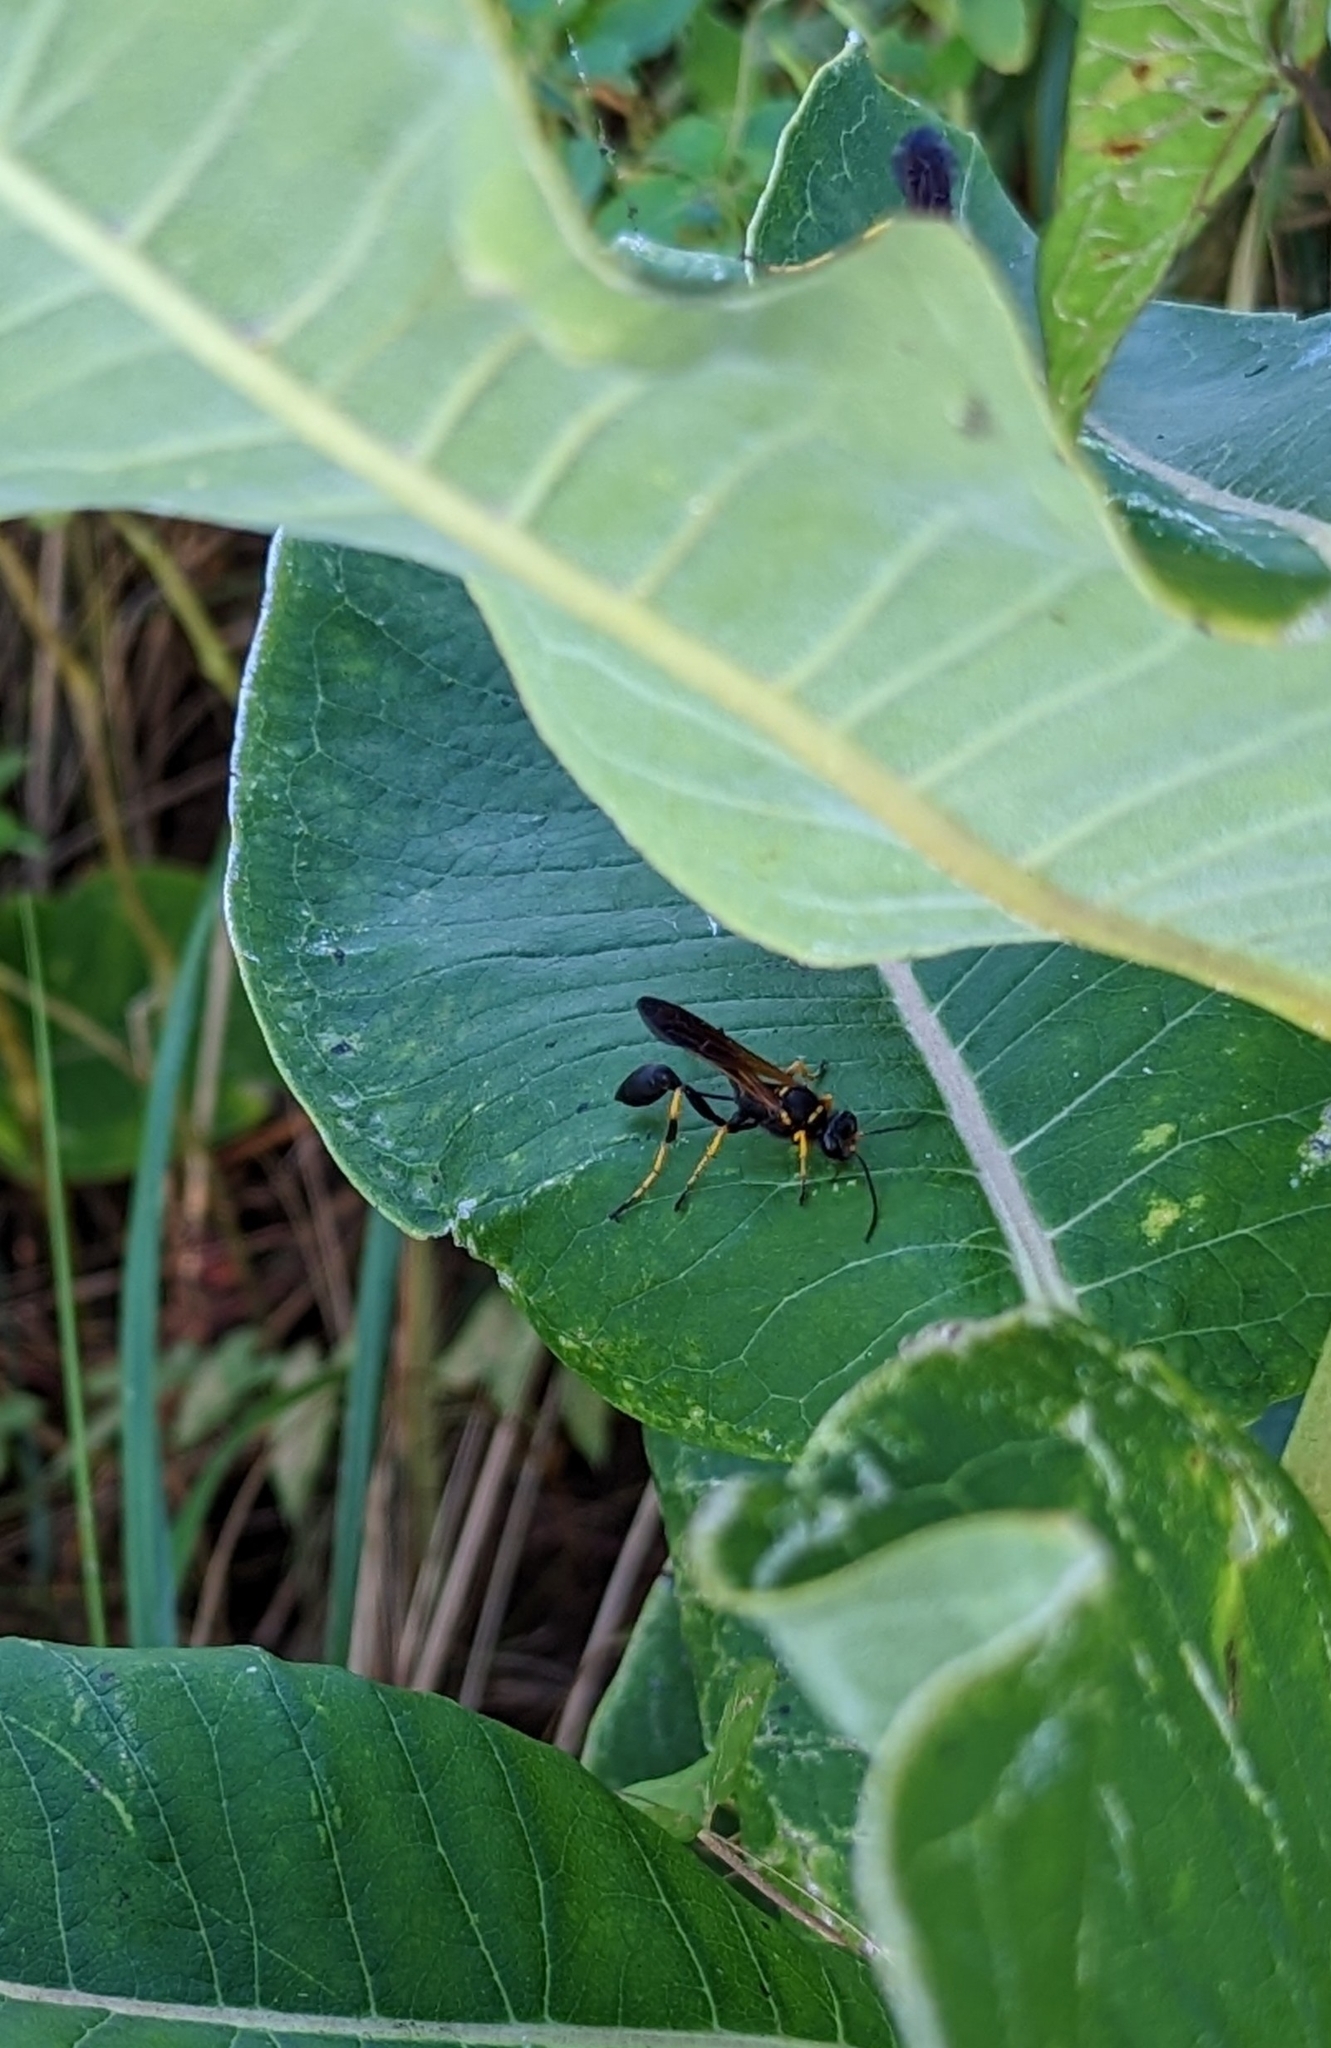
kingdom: Animalia
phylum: Arthropoda
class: Insecta
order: Hymenoptera
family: Sphecidae
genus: Sceliphron
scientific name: Sceliphron caementarium
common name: Mud dauber
